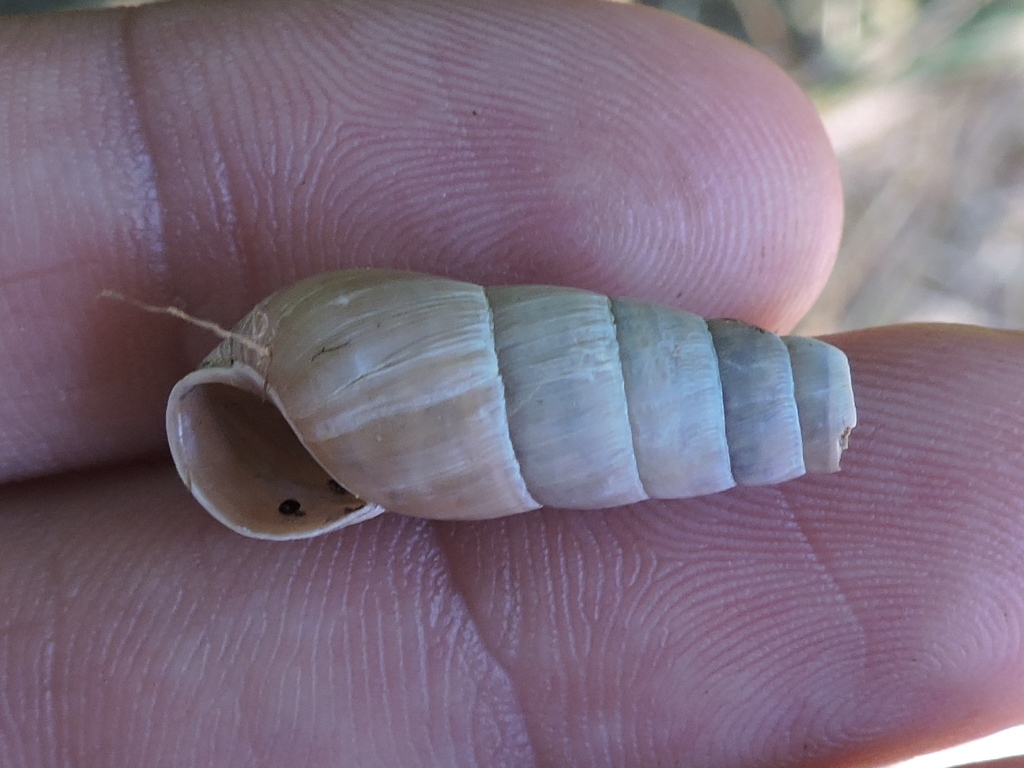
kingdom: Animalia
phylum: Mollusca
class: Gastropoda
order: Stylommatophora
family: Achatinidae
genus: Rumina
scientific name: Rumina decollata
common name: Decollate snail
